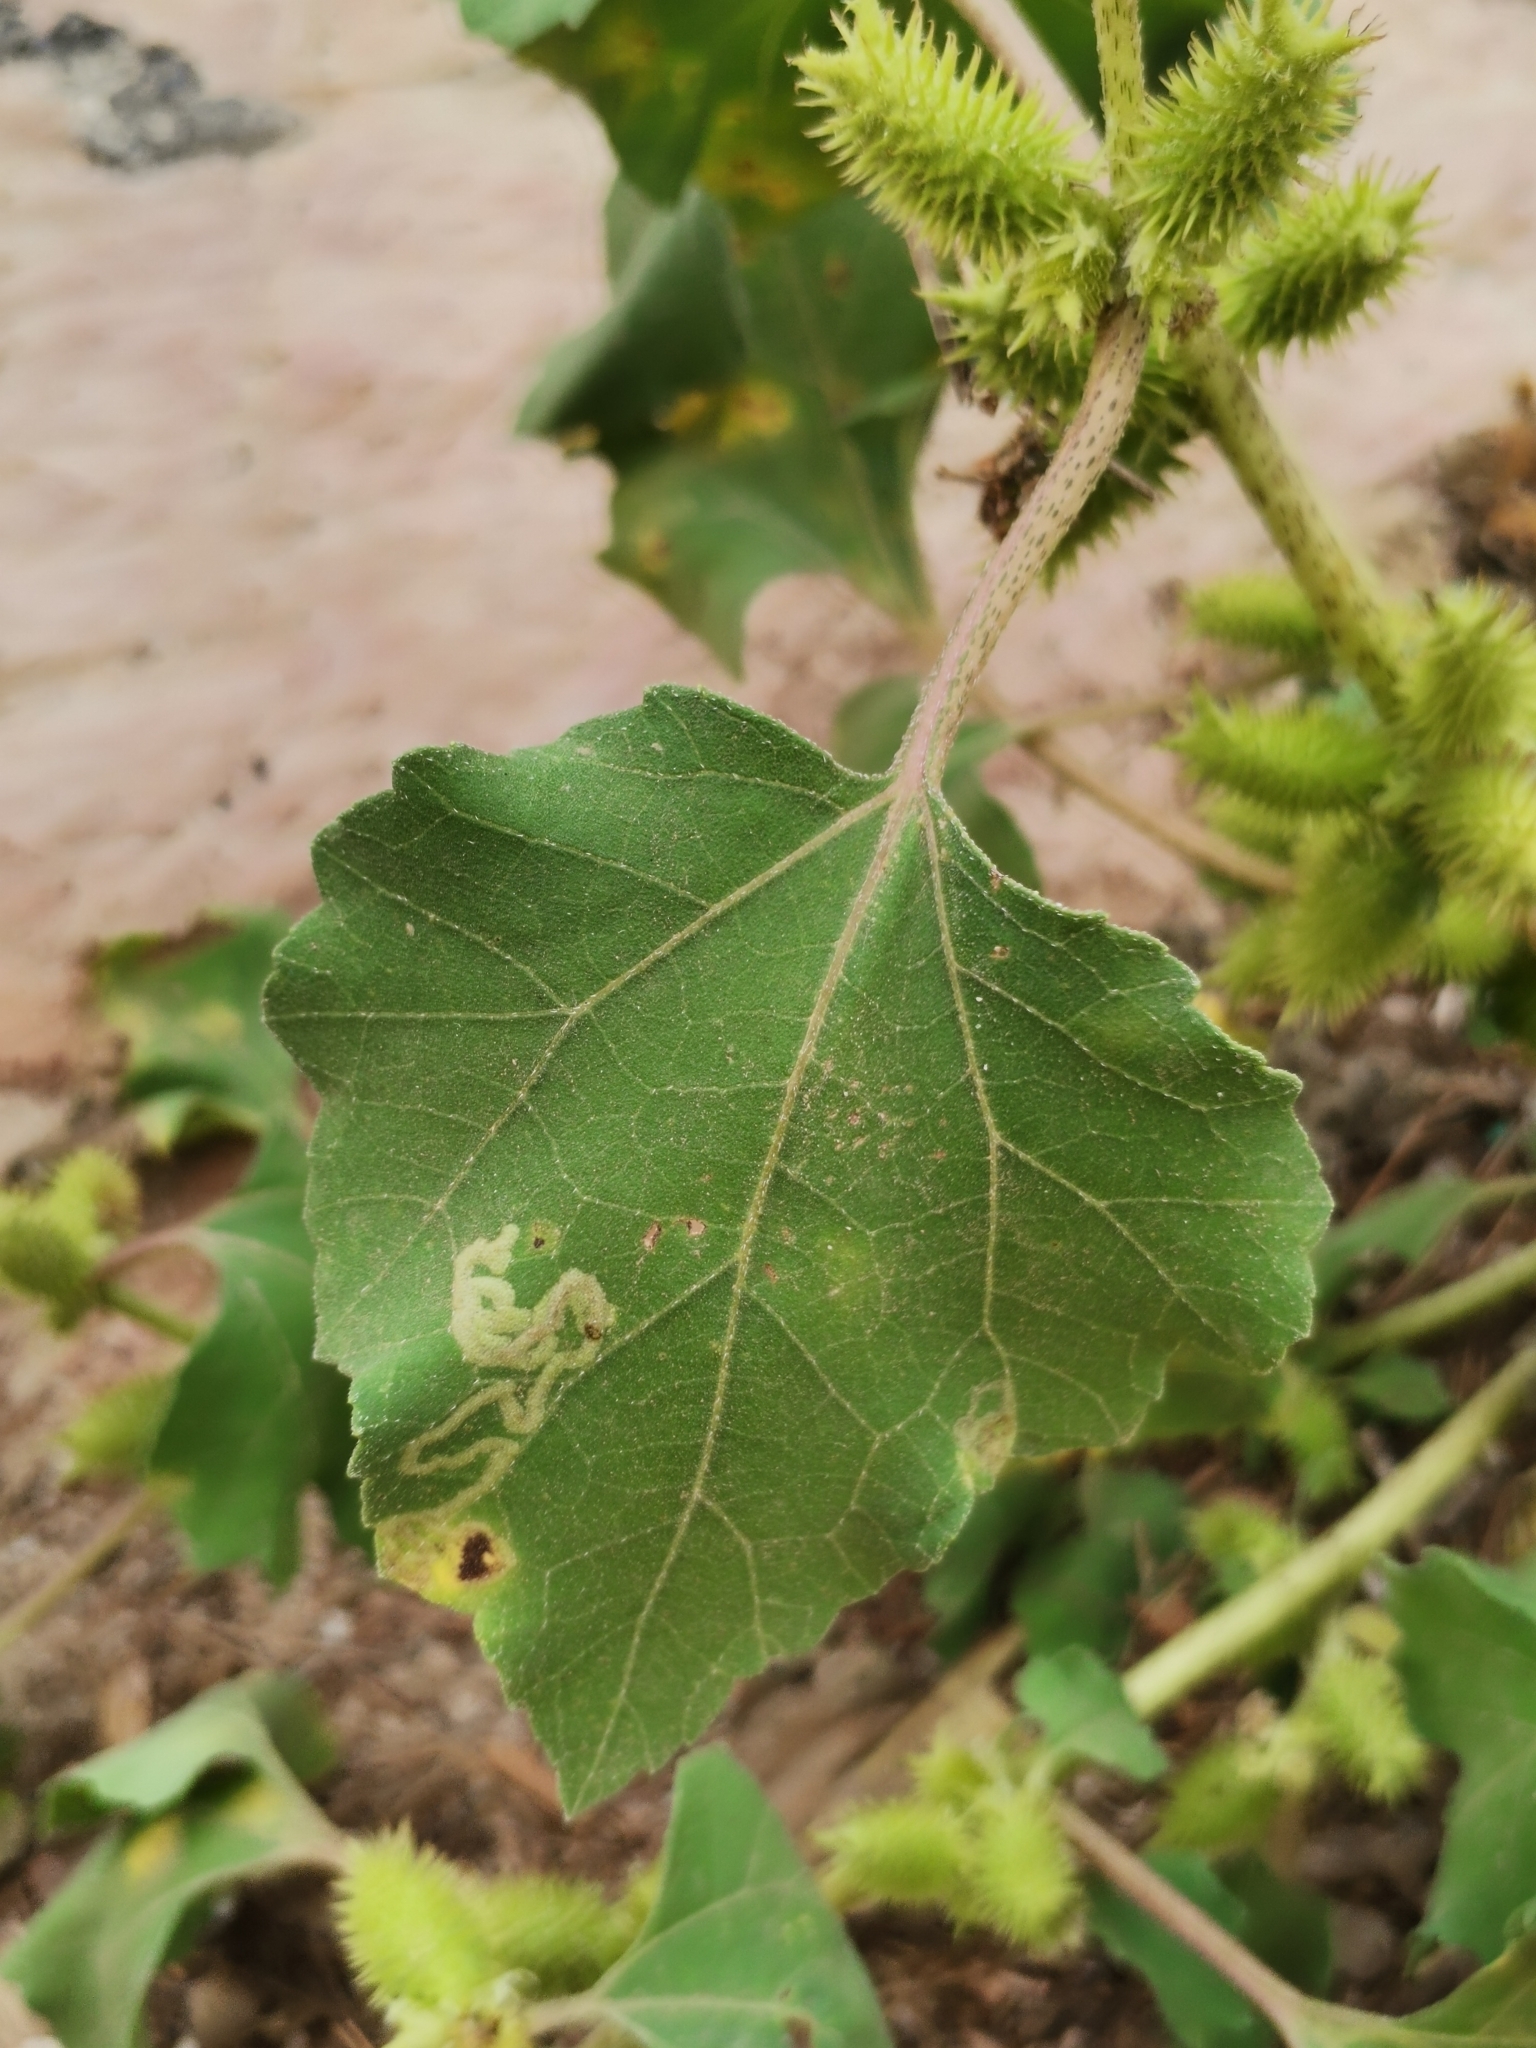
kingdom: Plantae
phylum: Tracheophyta
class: Magnoliopsida
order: Asterales
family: Asteraceae
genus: Xanthium
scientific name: Xanthium strumarium
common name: Rough cocklebur
